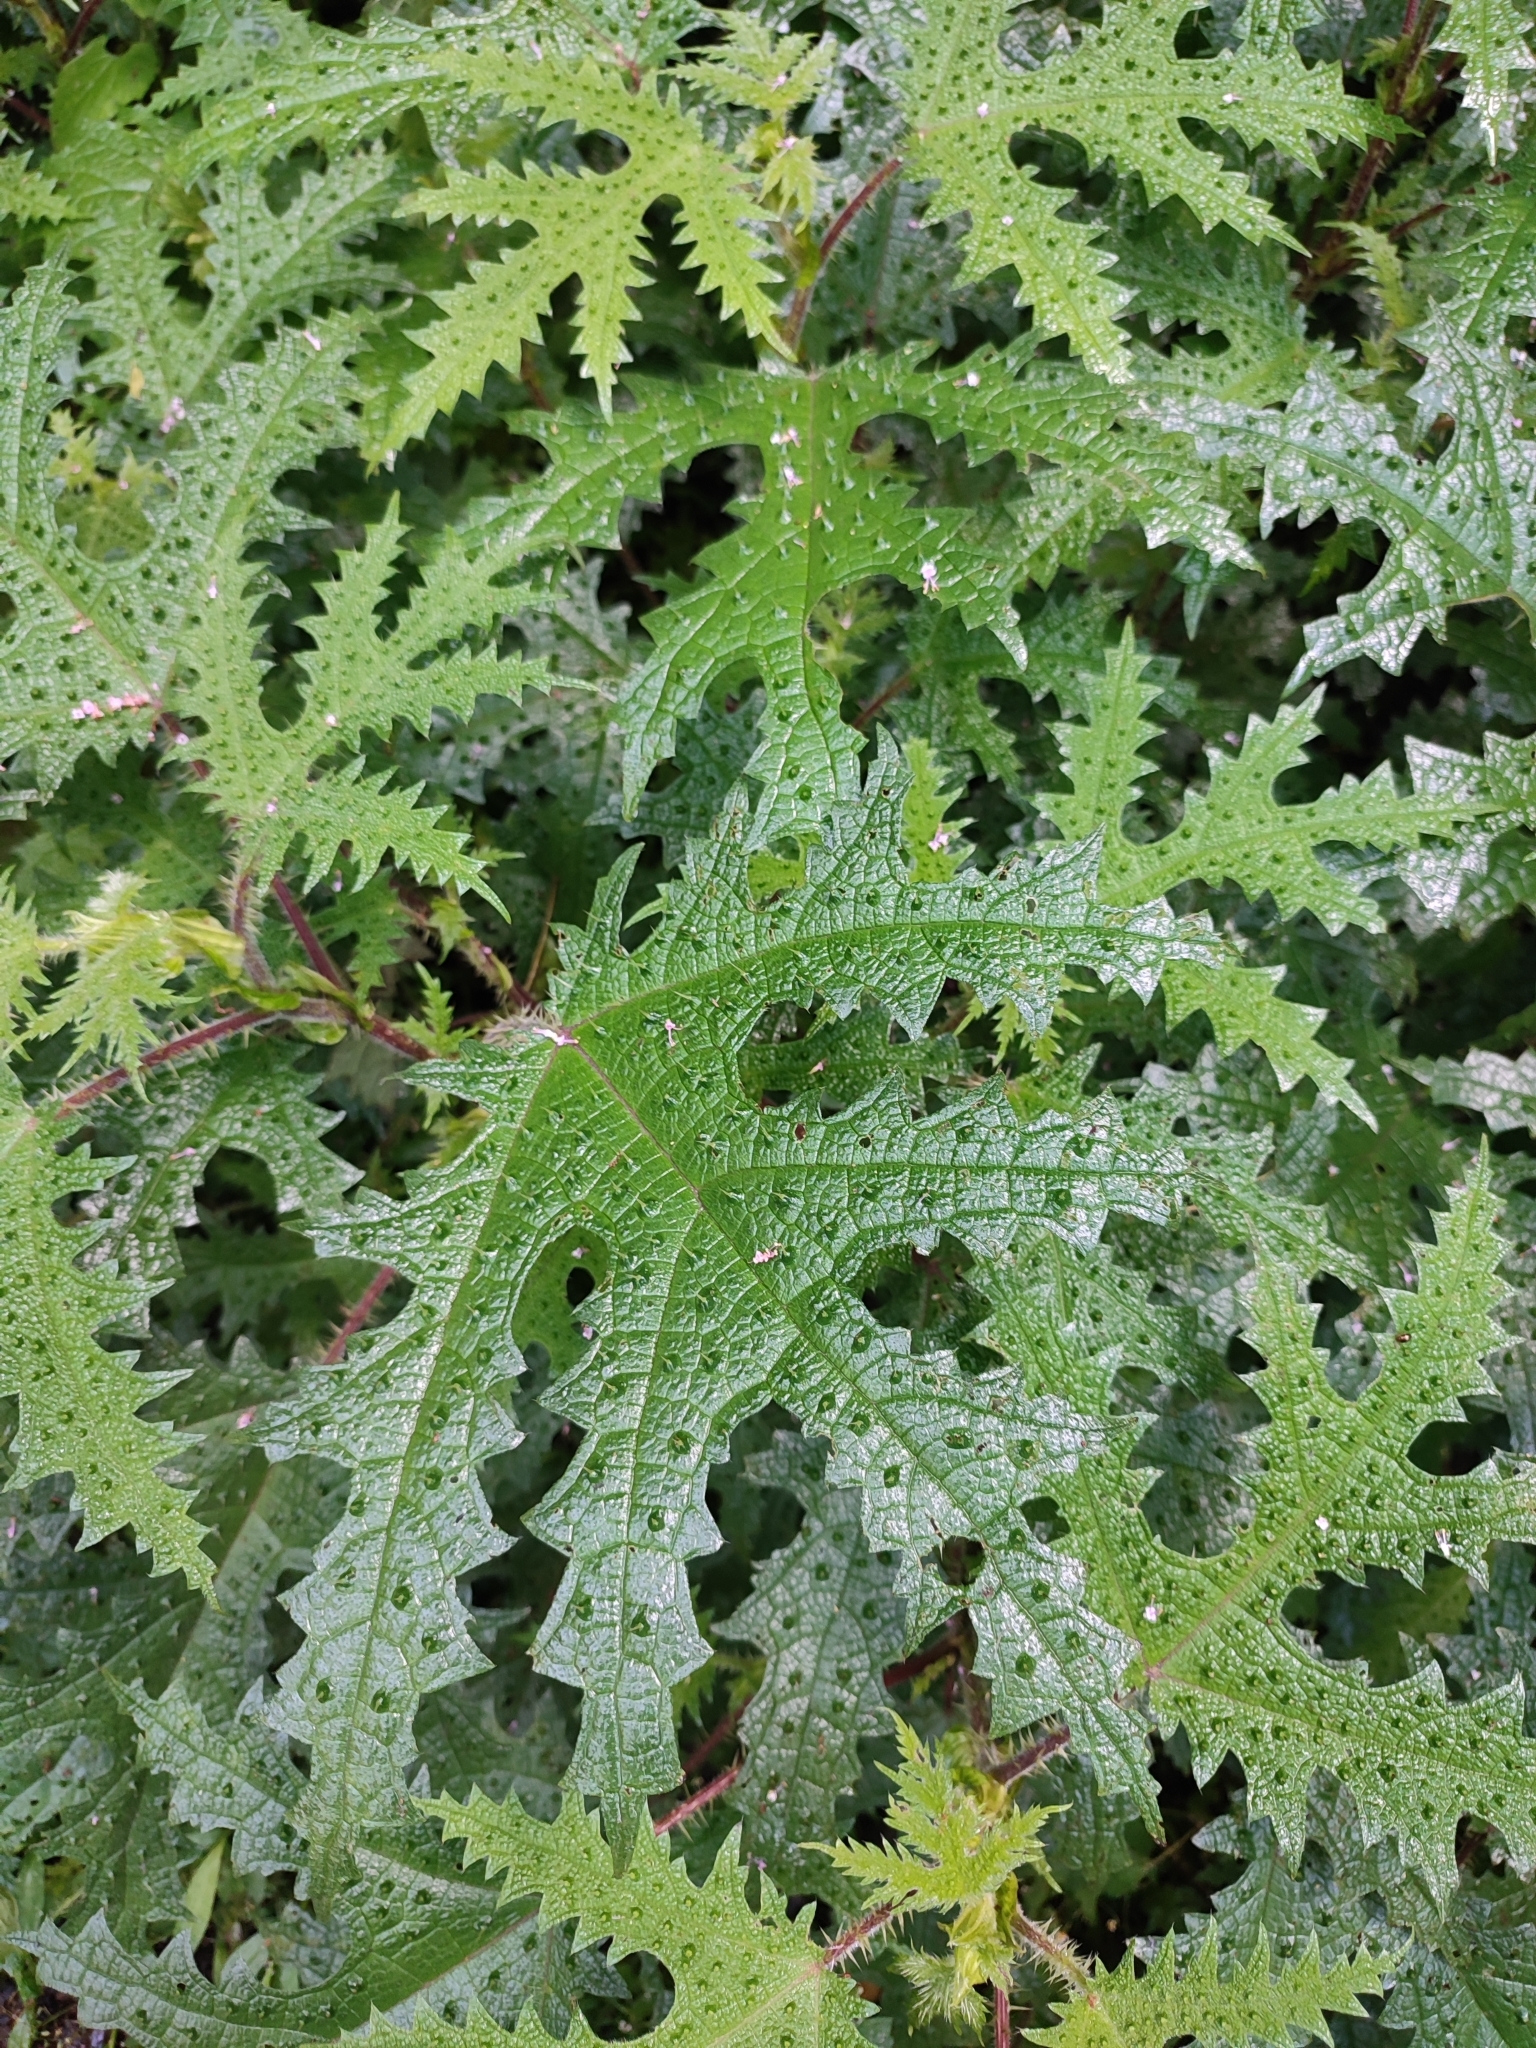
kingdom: Plantae
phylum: Tracheophyta
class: Magnoliopsida
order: Rosales
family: Urticaceae
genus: Girardinia
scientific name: Girardinia diversifolia
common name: Himalayan-nettle
